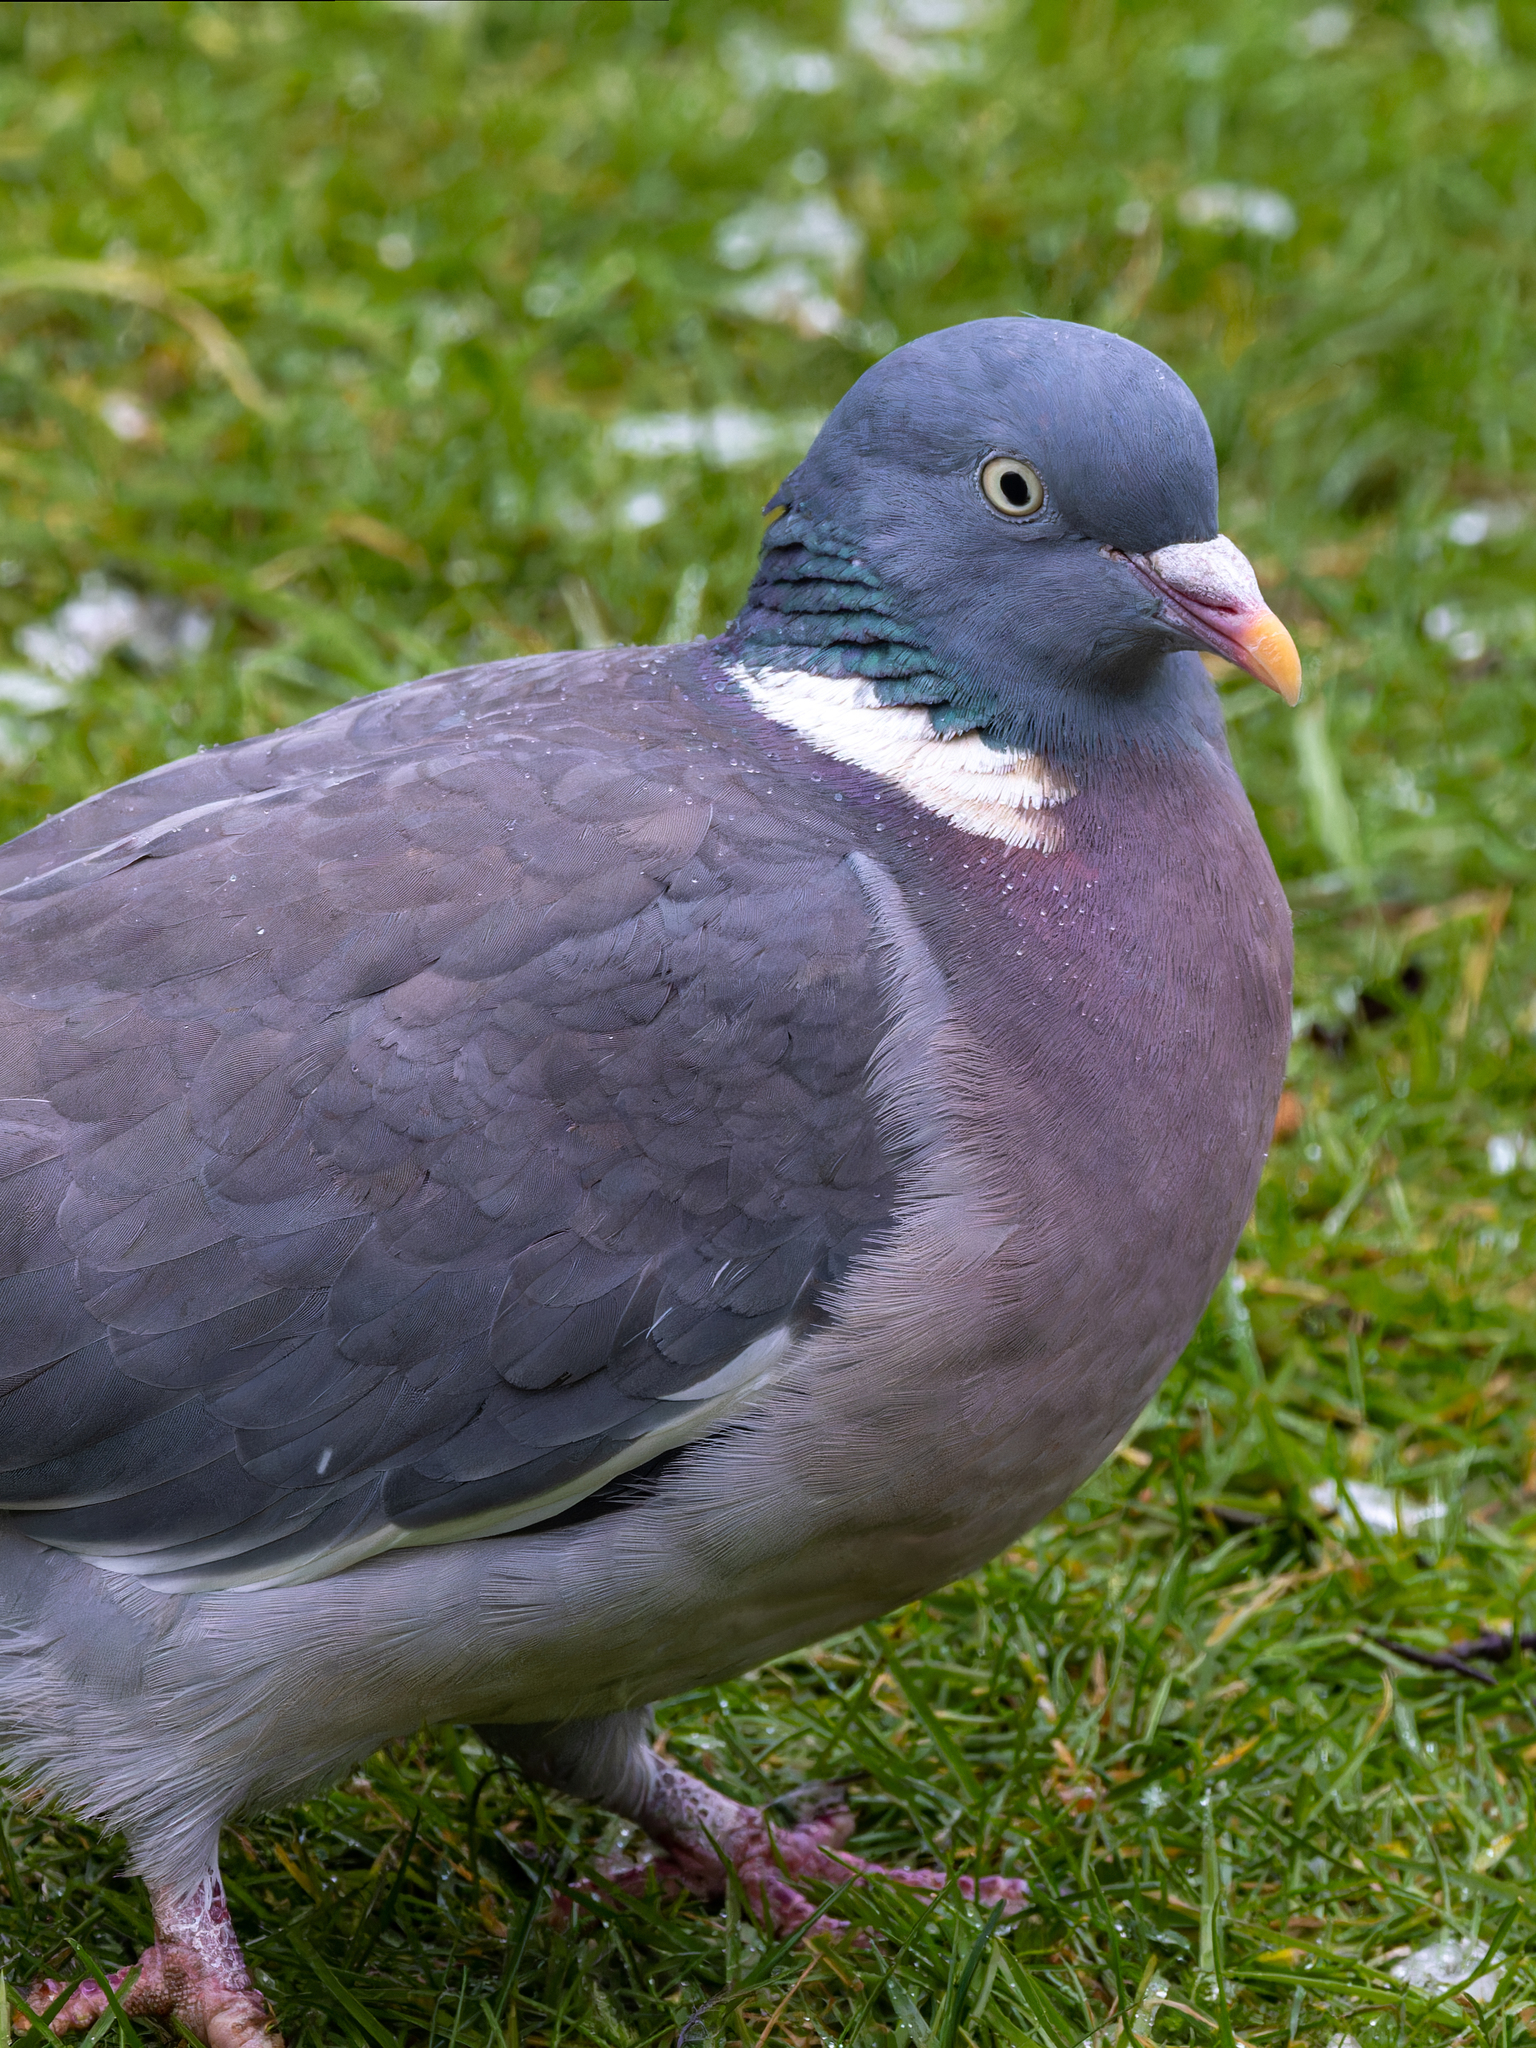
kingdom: Animalia
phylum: Chordata
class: Aves
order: Columbiformes
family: Columbidae
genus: Columba
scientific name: Columba palumbus
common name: Common wood pigeon
